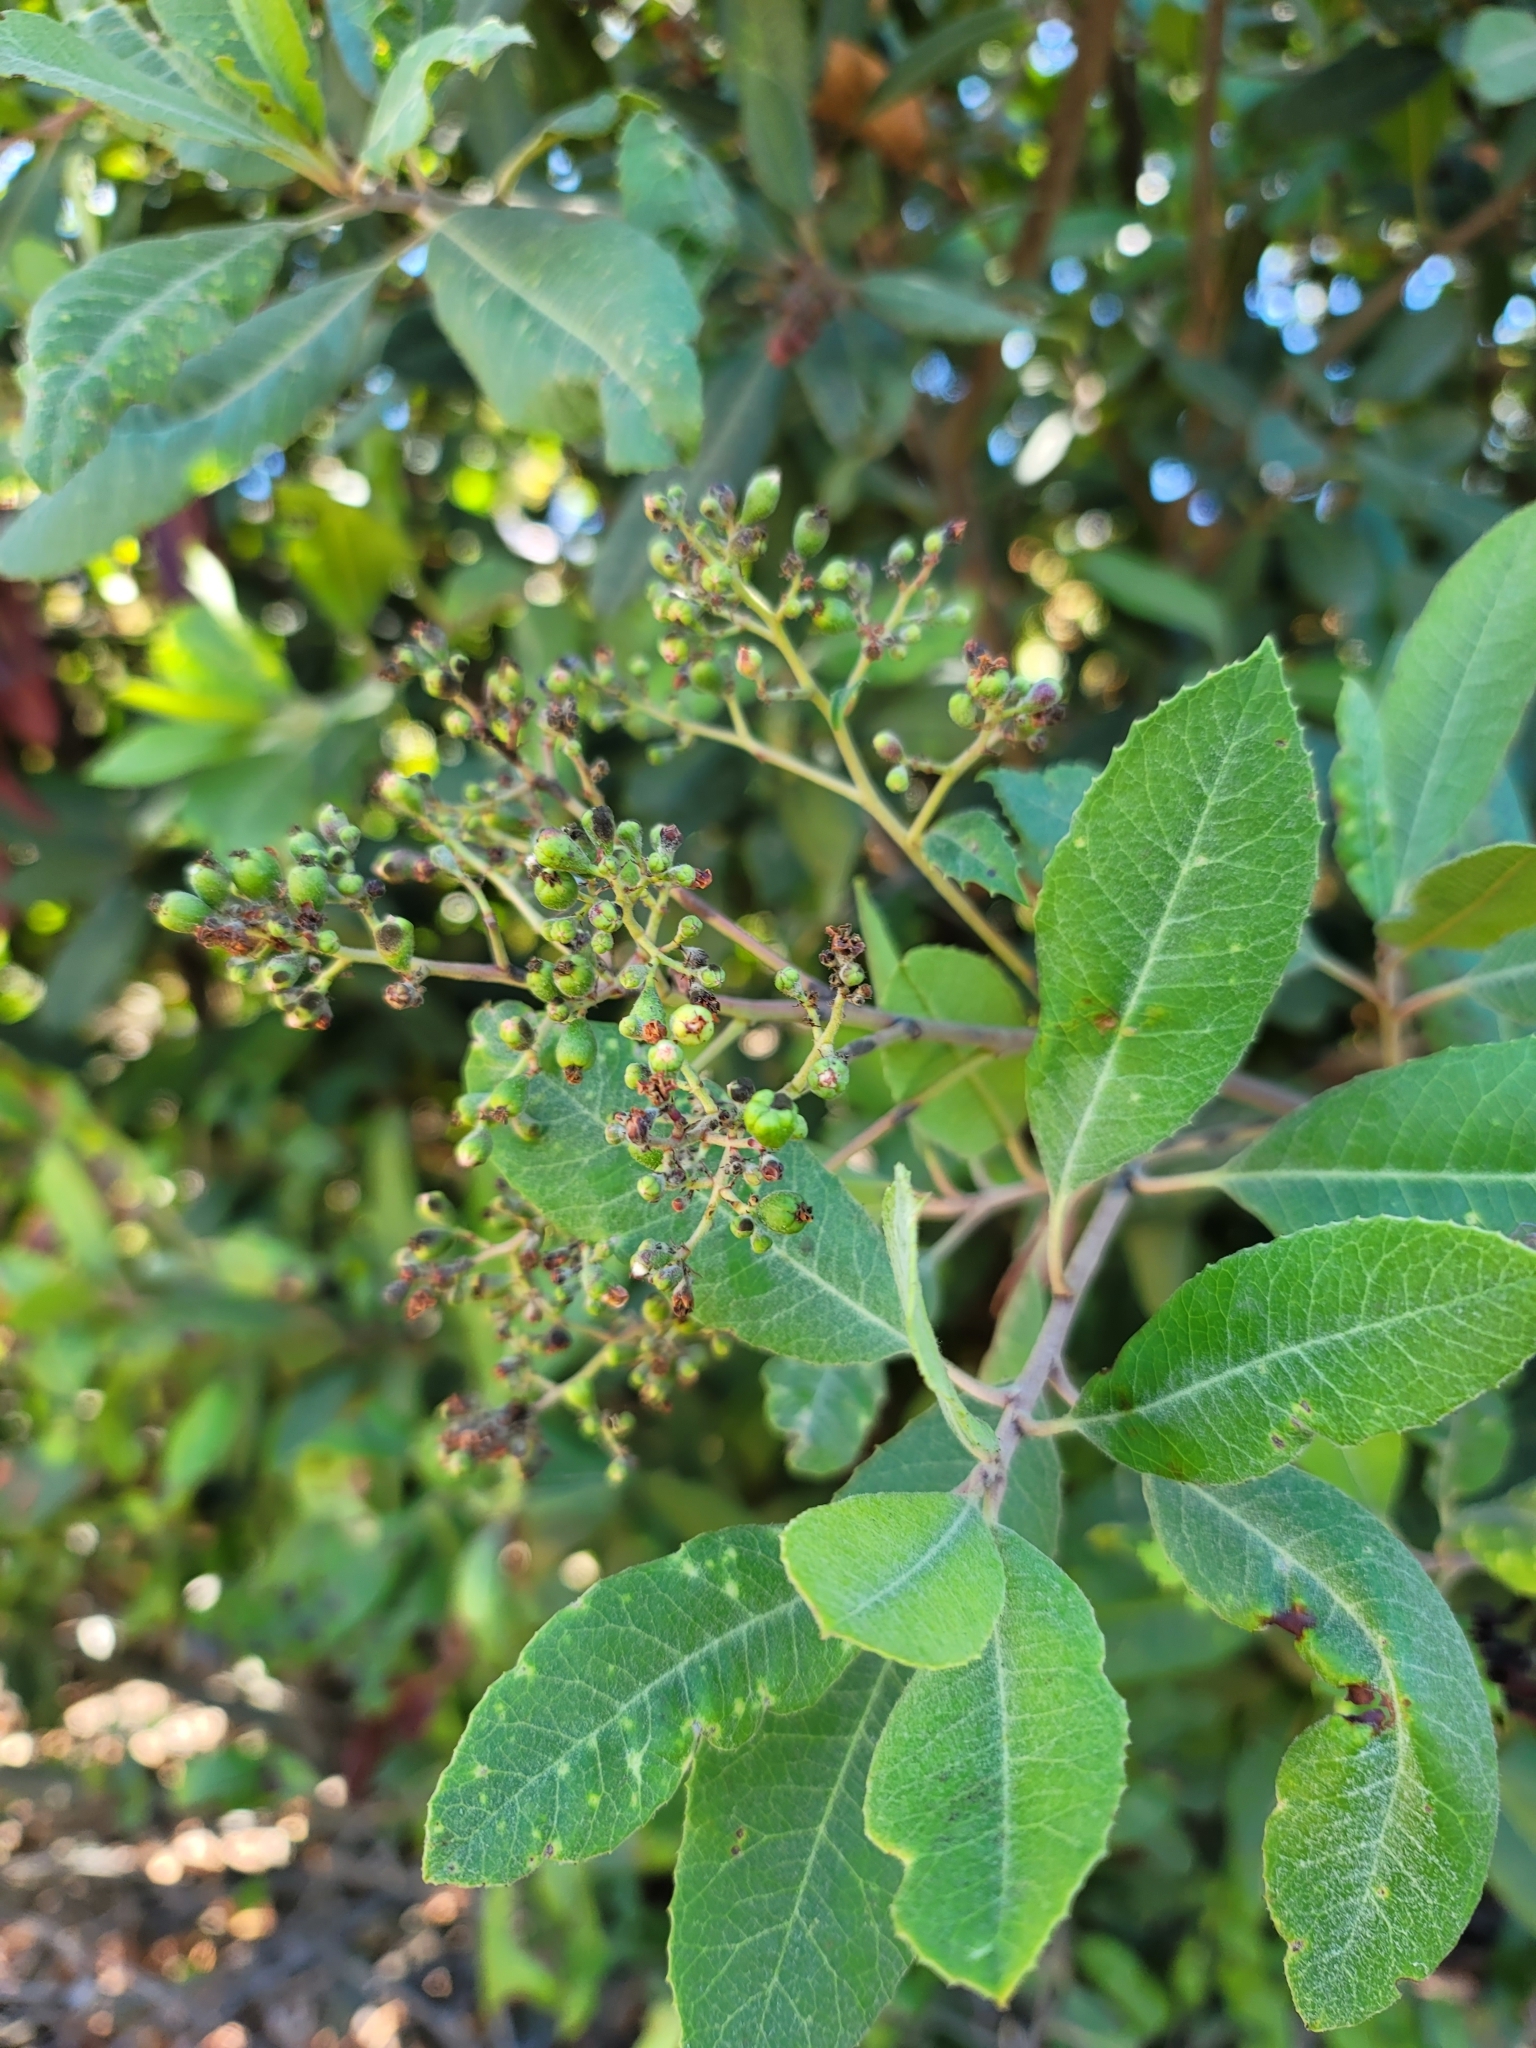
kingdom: Plantae
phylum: Tracheophyta
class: Magnoliopsida
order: Rosales
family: Rosaceae
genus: Heteromeles
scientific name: Heteromeles arbutifolia
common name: California-holly
